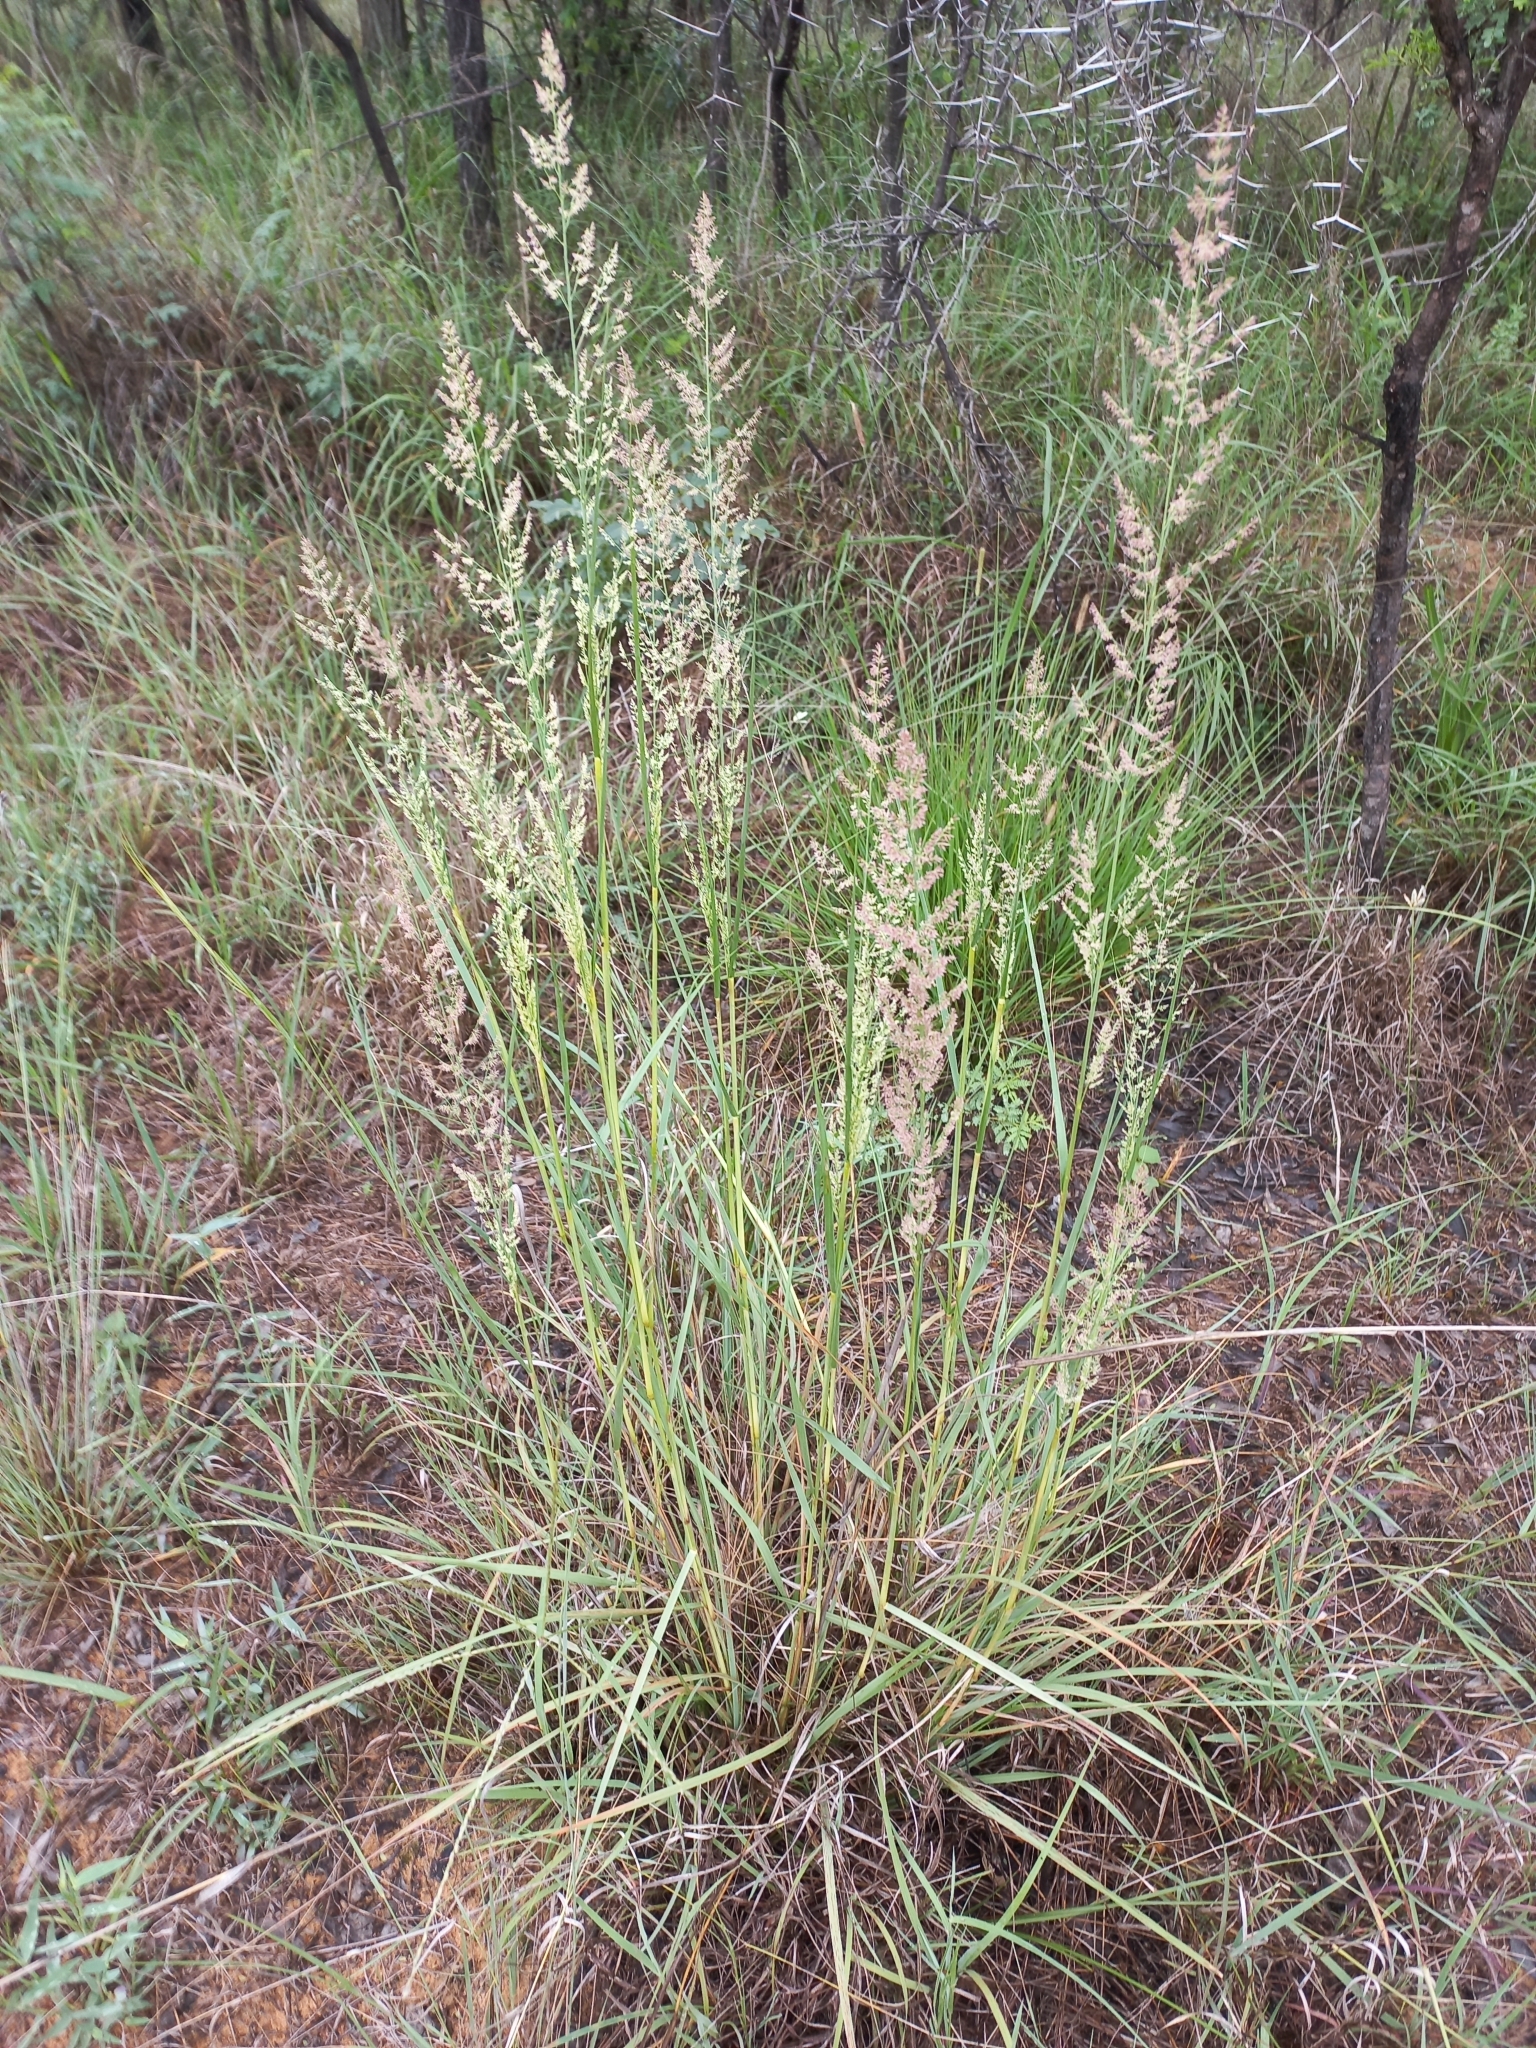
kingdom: Plantae
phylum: Tracheophyta
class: Liliopsida
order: Poales
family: Poaceae
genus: Eragrostis
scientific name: Eragrostis gummiflua
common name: Gum grass
